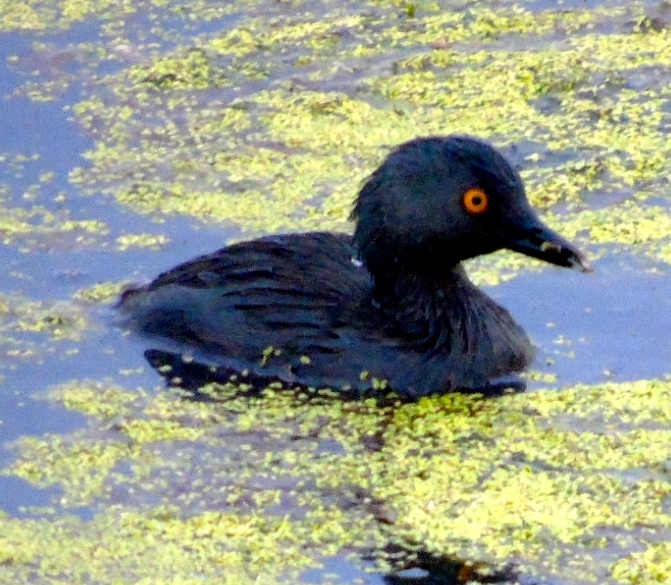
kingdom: Animalia
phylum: Chordata
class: Aves
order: Podicipediformes
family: Podicipedidae
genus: Tachybaptus
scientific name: Tachybaptus dominicus
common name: Least grebe
